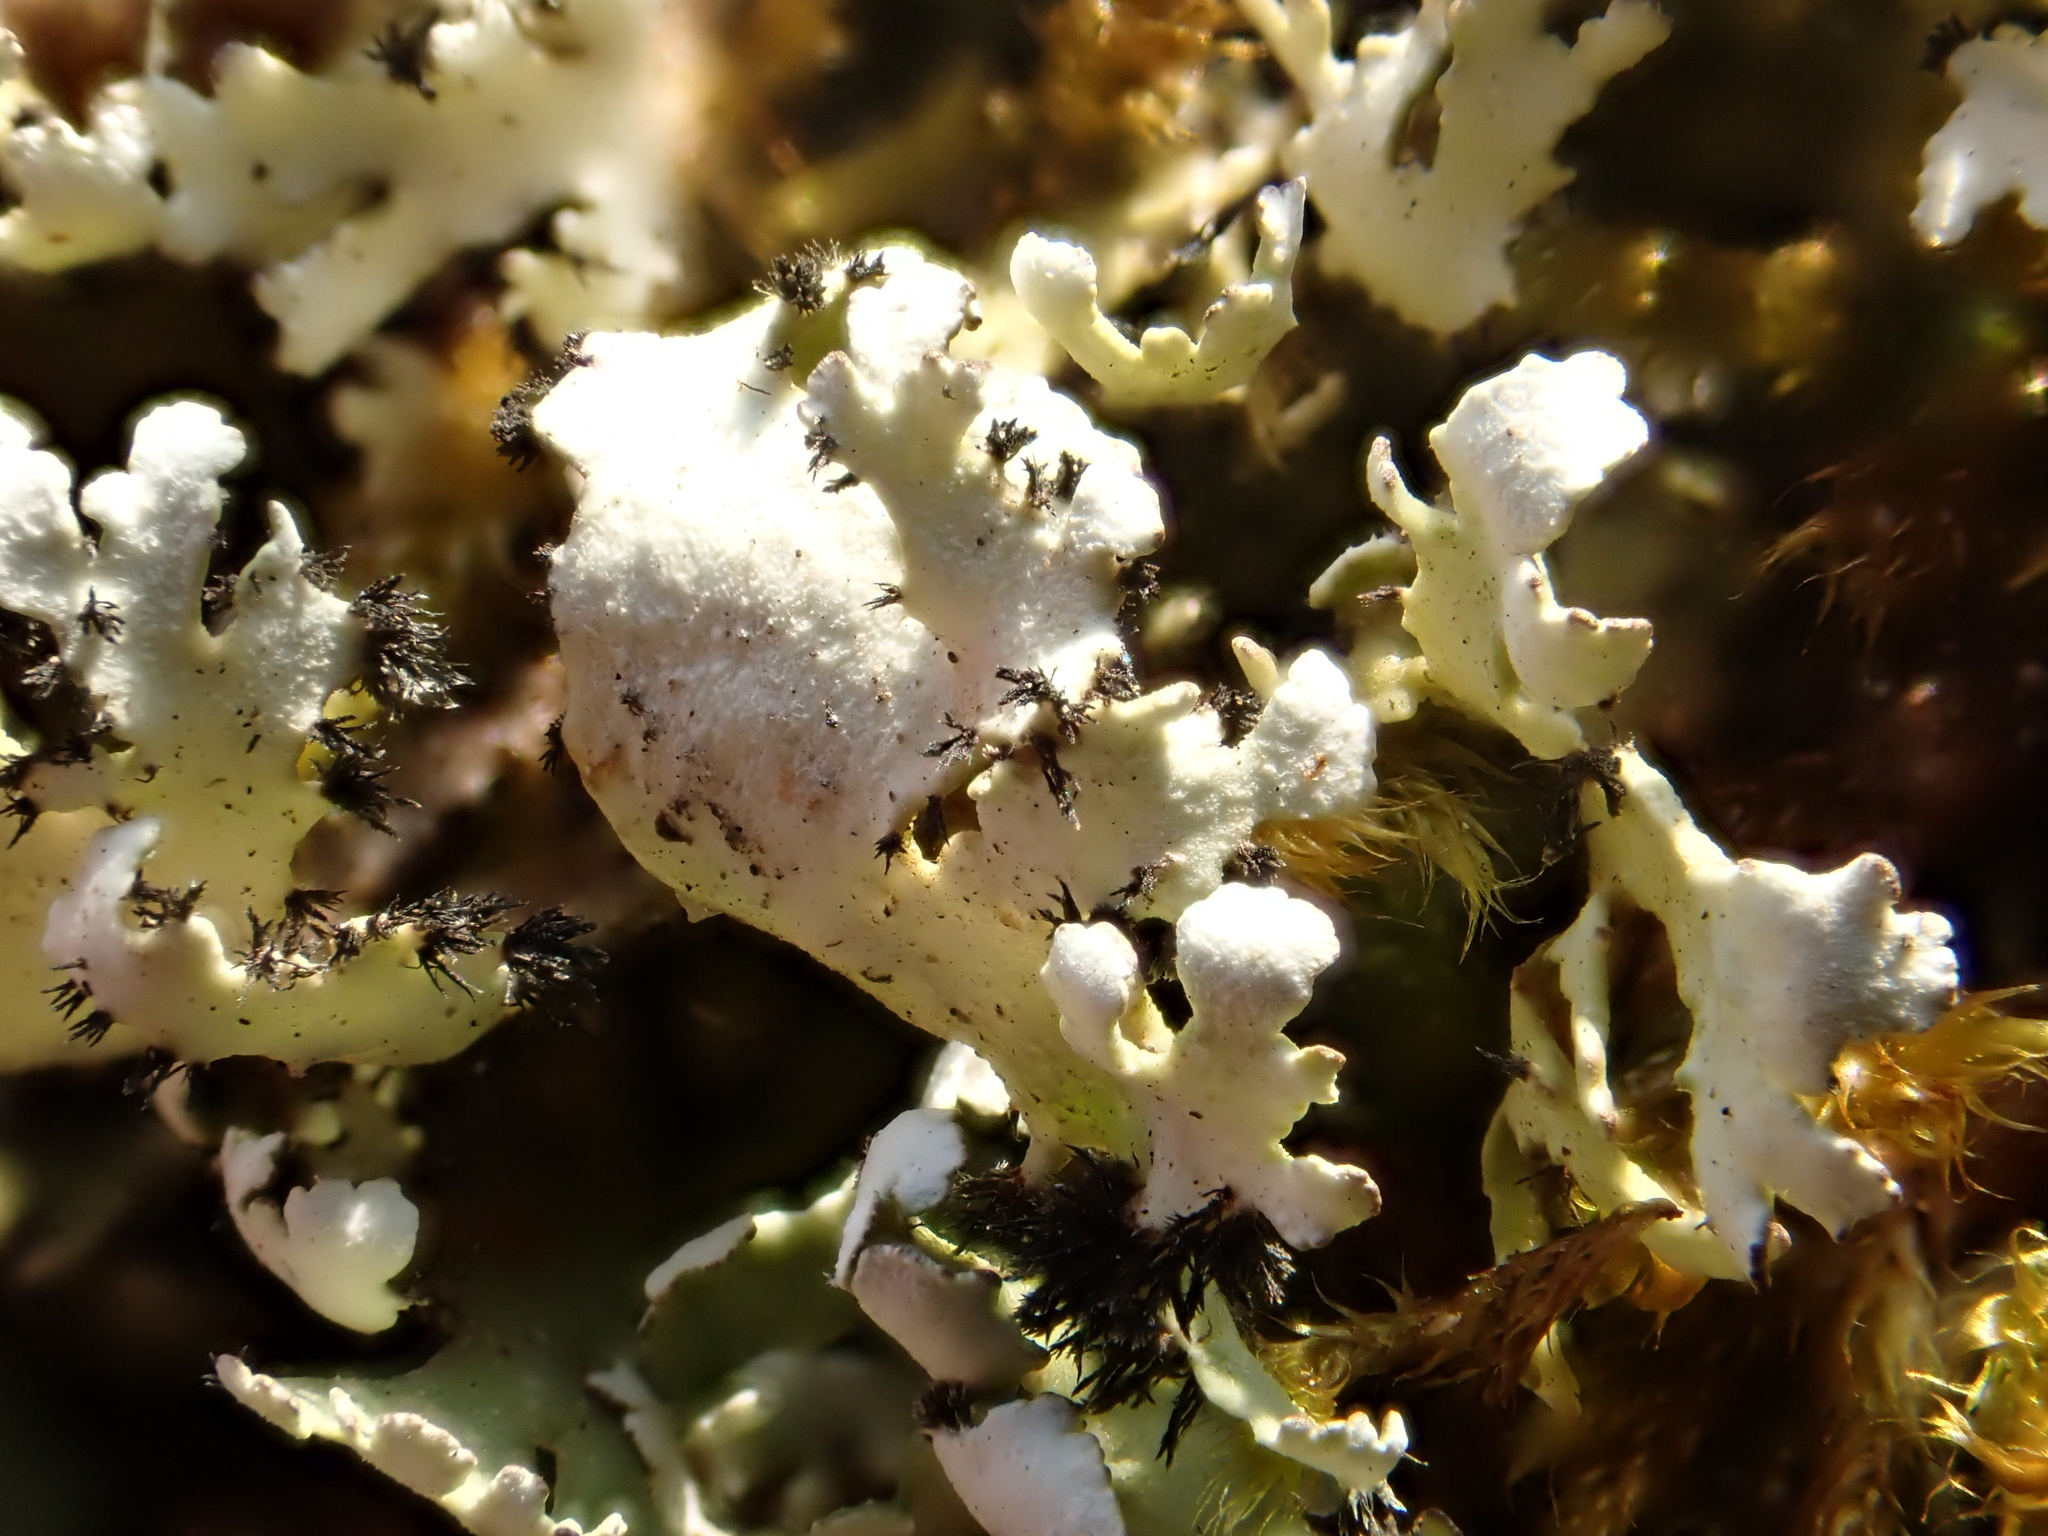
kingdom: Fungi
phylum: Ascomycota
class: Lecanoromycetes
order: Lecanorales
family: Cladoniaceae
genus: Cladonia
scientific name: Cladonia foliacea
